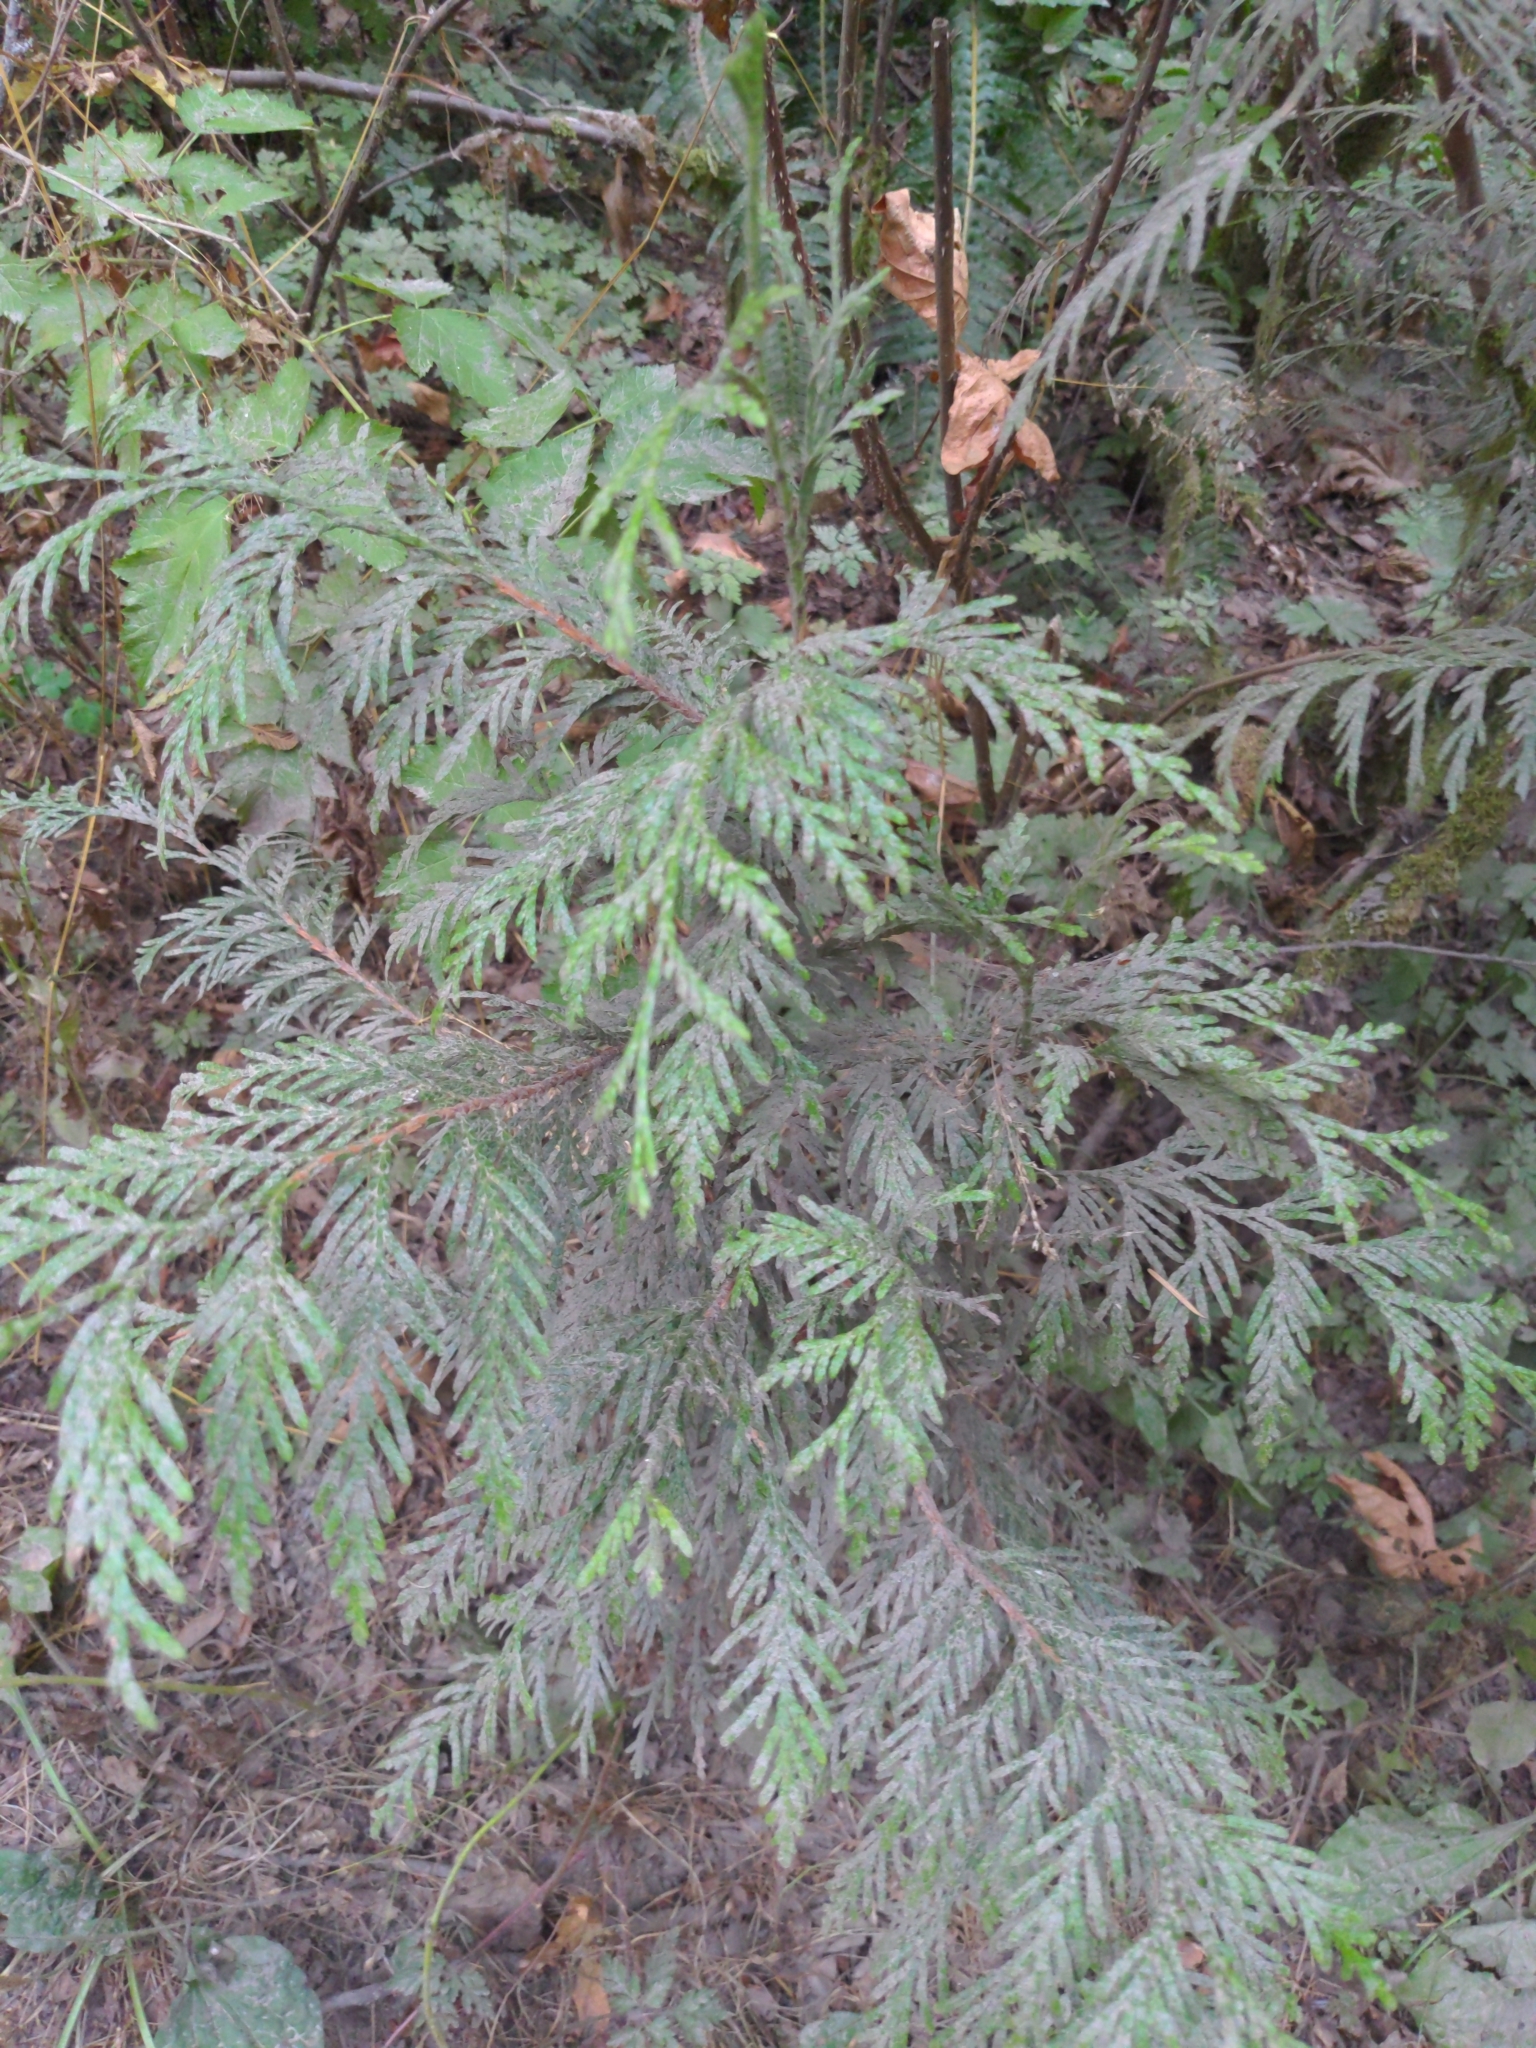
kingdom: Plantae
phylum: Tracheophyta
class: Pinopsida
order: Pinales
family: Cupressaceae
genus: Thuja
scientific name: Thuja plicata
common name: Western red-cedar
